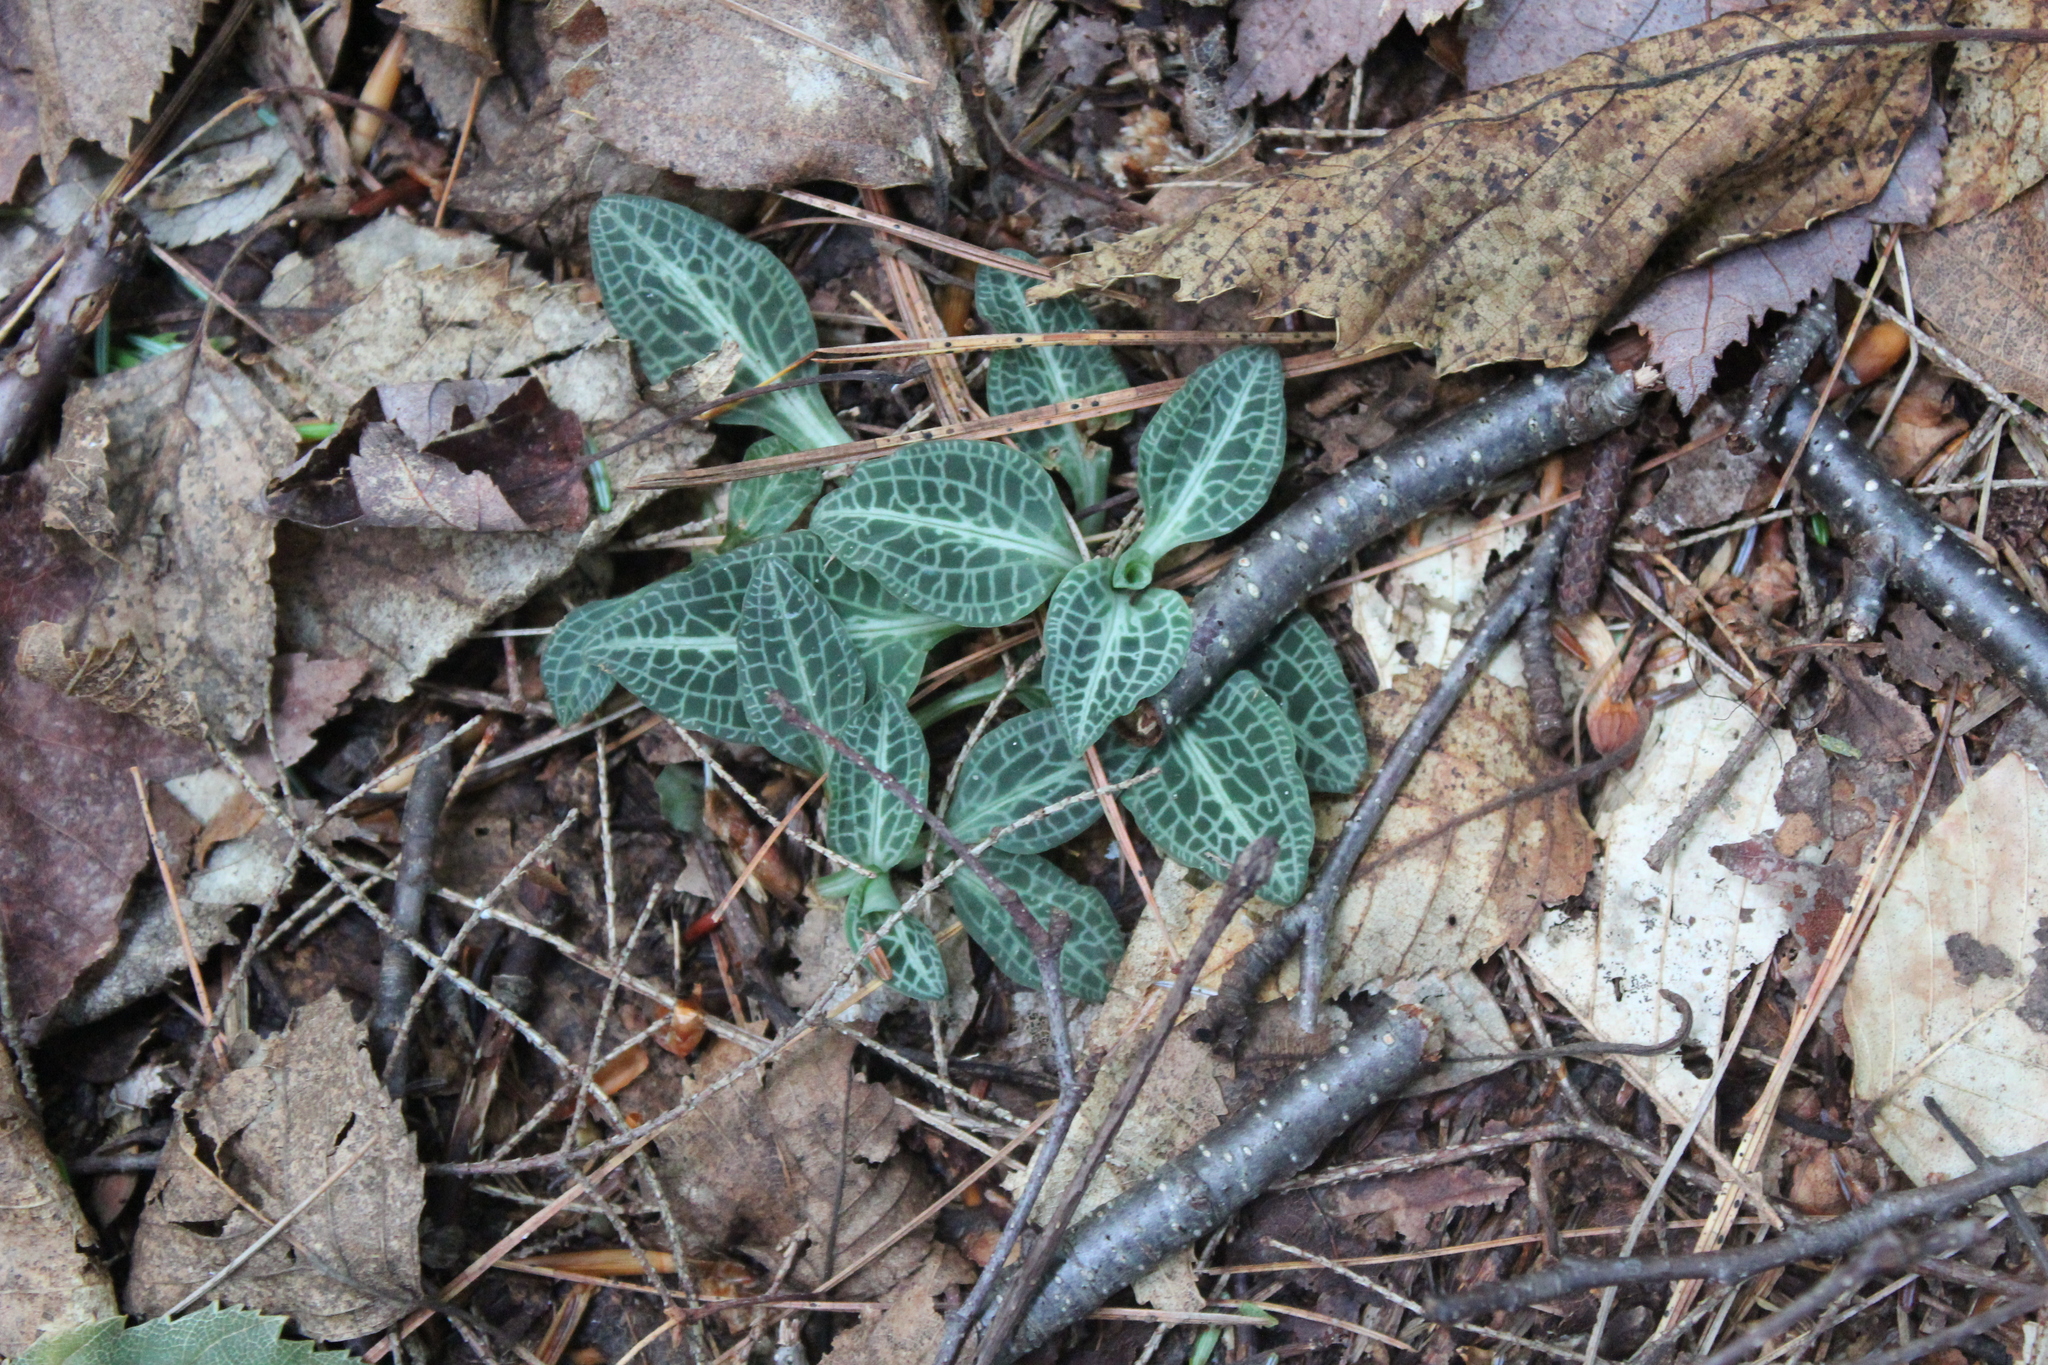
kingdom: Plantae
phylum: Tracheophyta
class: Liliopsida
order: Asparagales
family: Orchidaceae
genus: Goodyera
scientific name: Goodyera pubescens
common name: Downy rattlesnake-plantain
